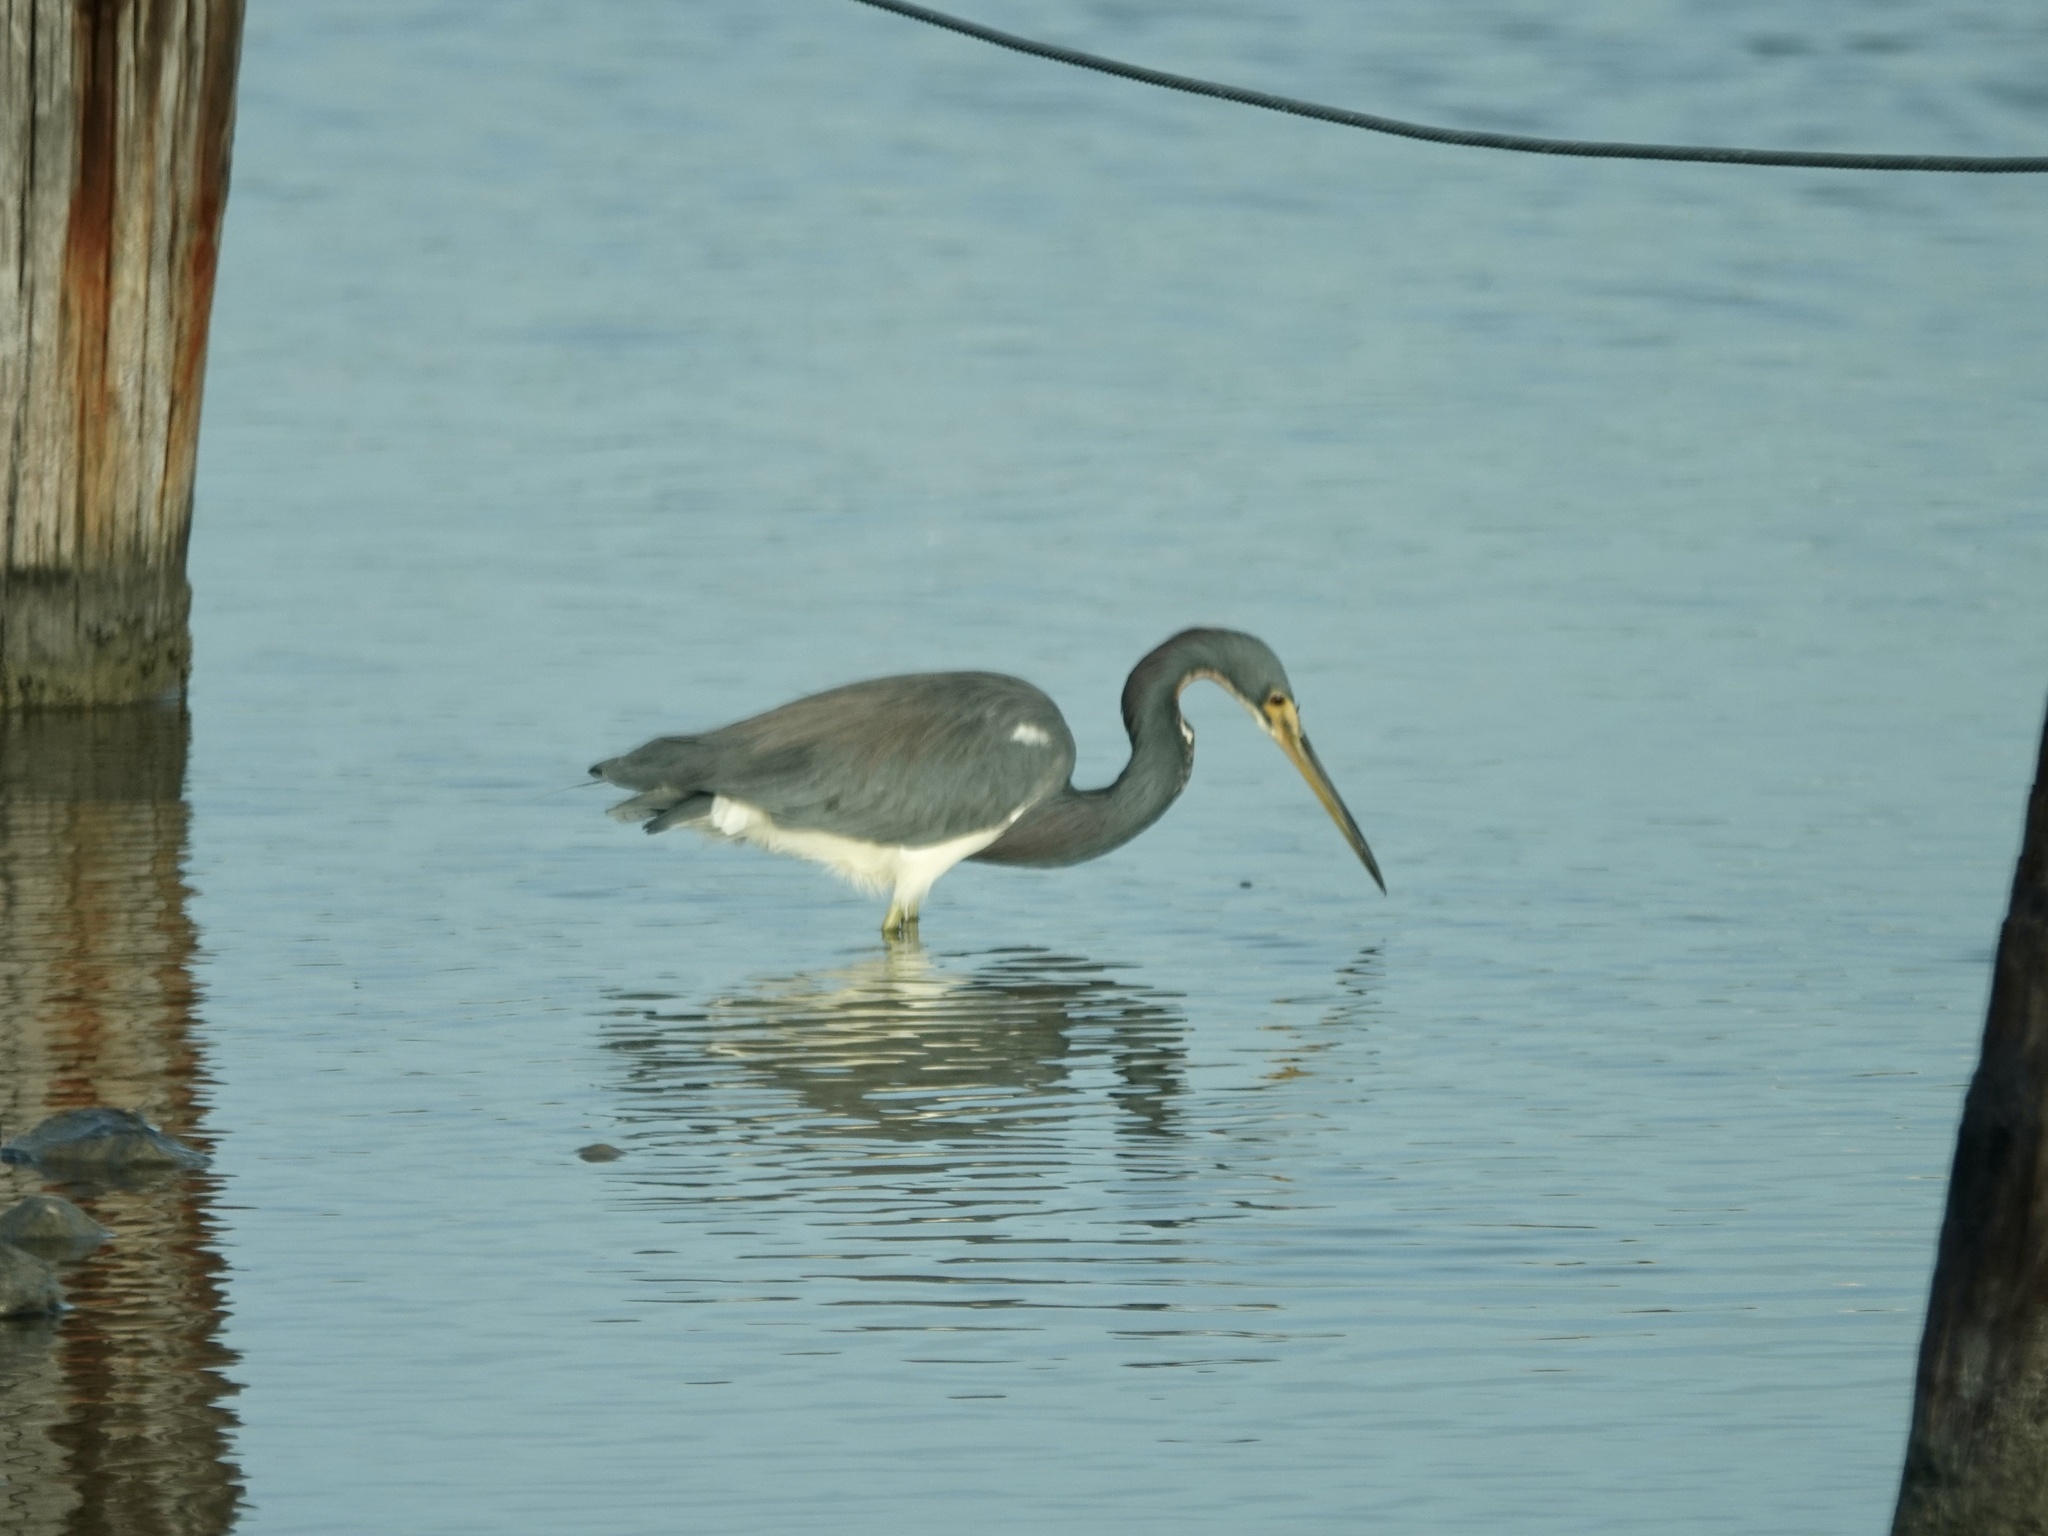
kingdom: Animalia
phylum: Chordata
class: Aves
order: Pelecaniformes
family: Ardeidae
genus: Egretta
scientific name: Egretta tricolor
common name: Tricolored heron
